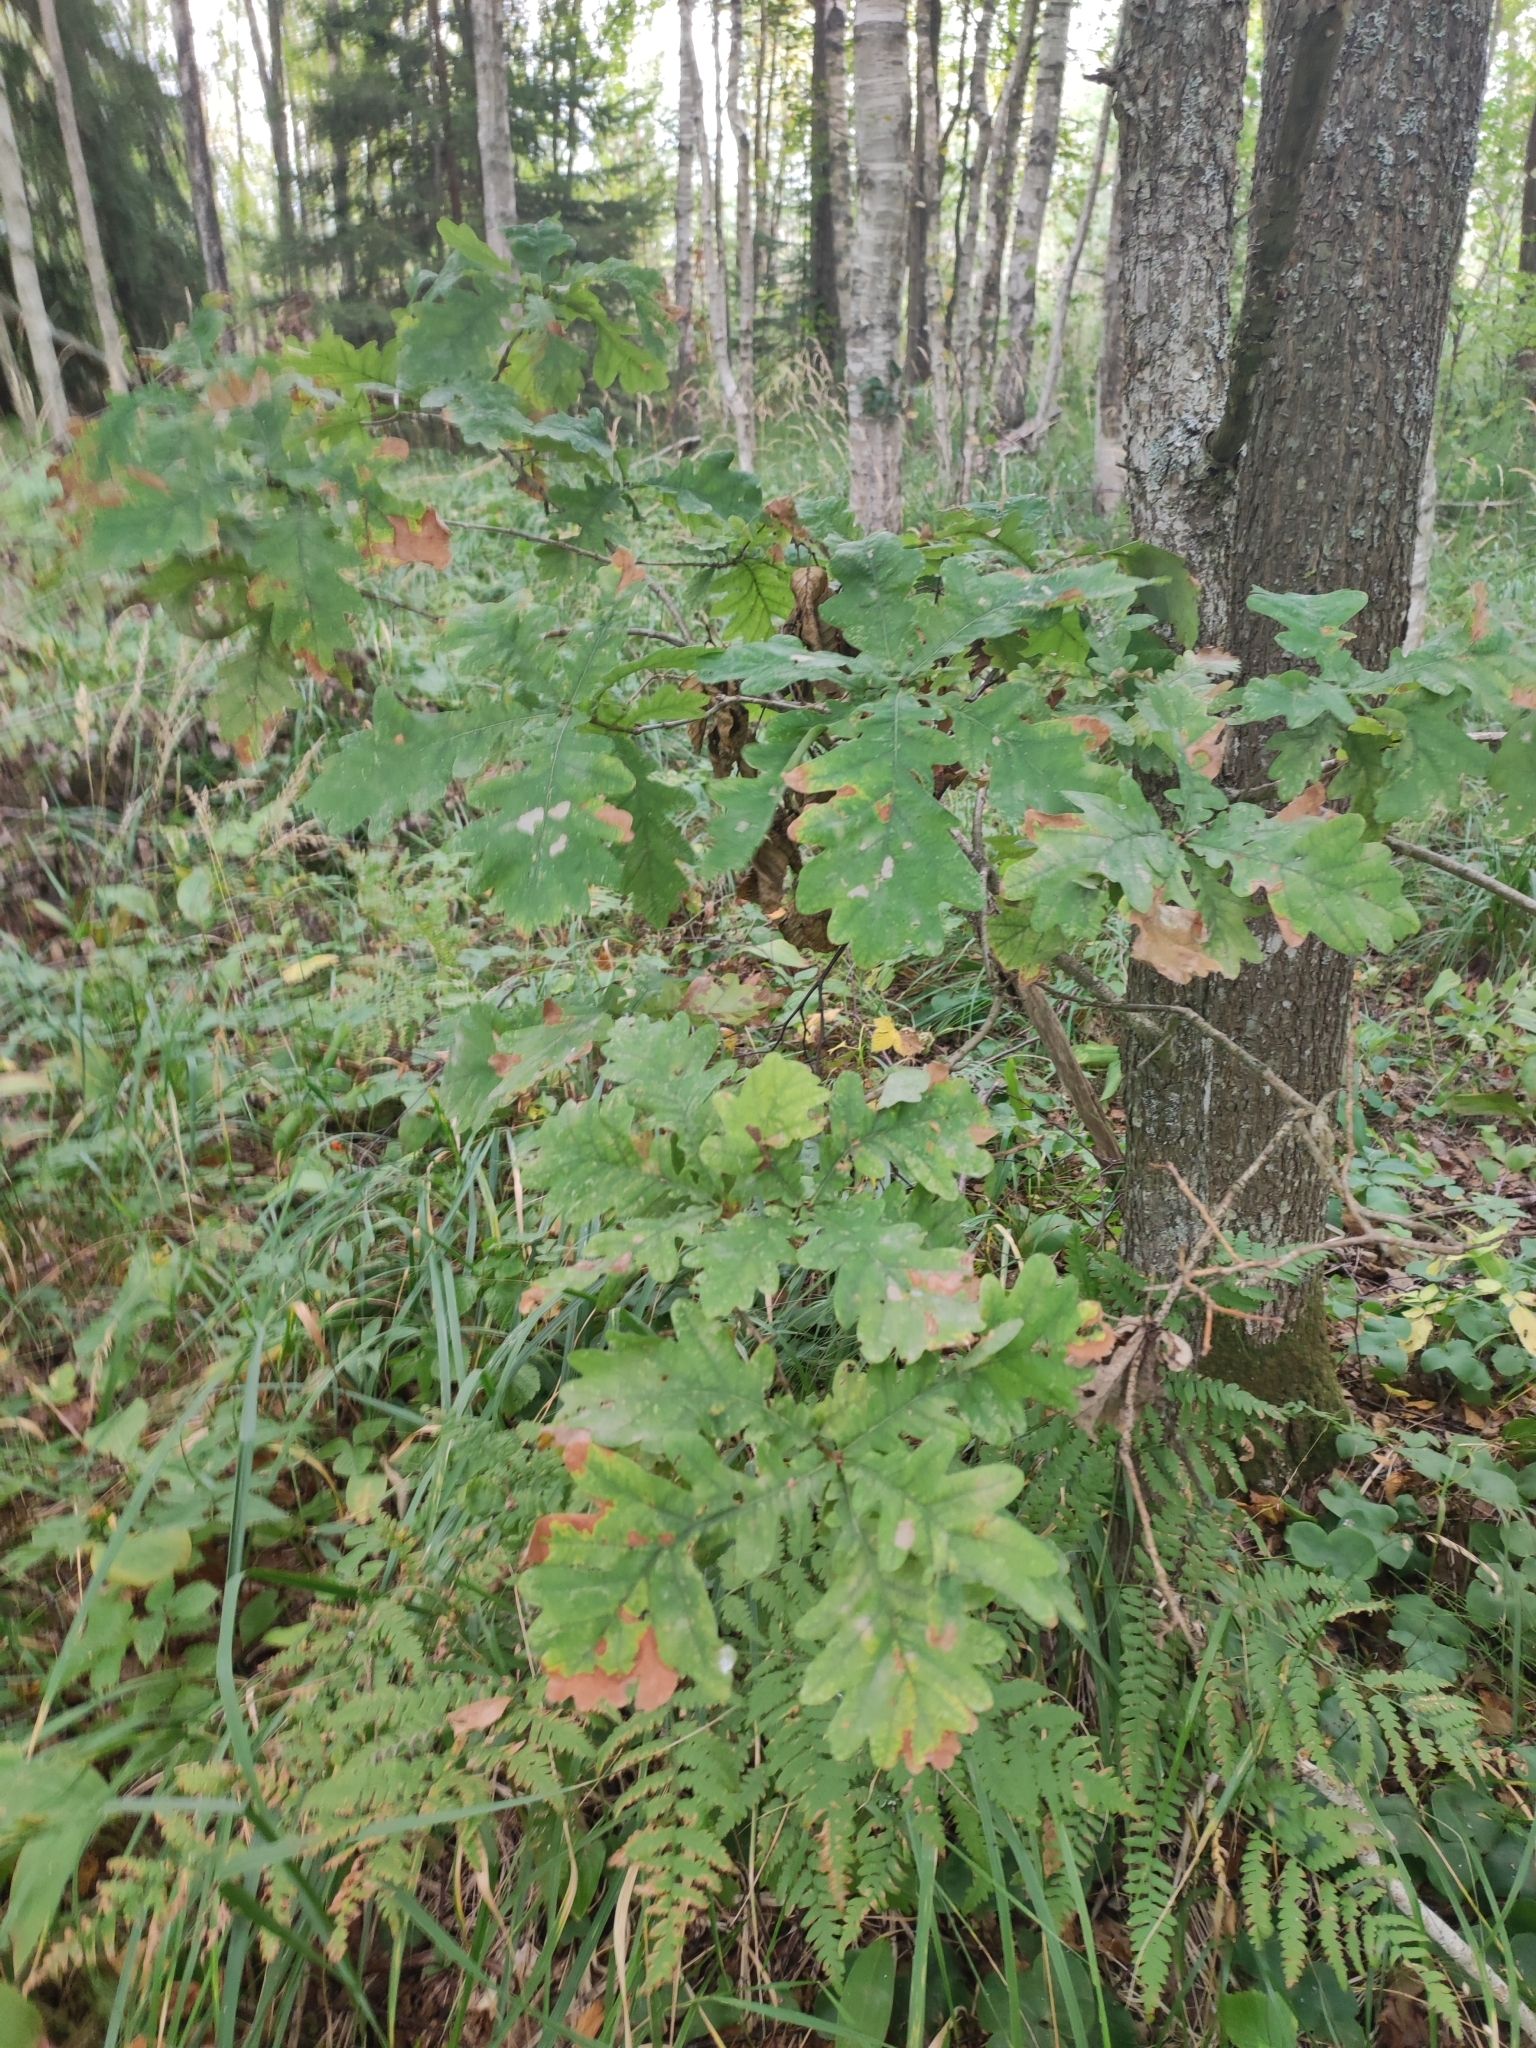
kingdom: Plantae
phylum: Tracheophyta
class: Magnoliopsida
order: Fagales
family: Fagaceae
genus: Quercus
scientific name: Quercus robur
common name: Pedunculate oak
